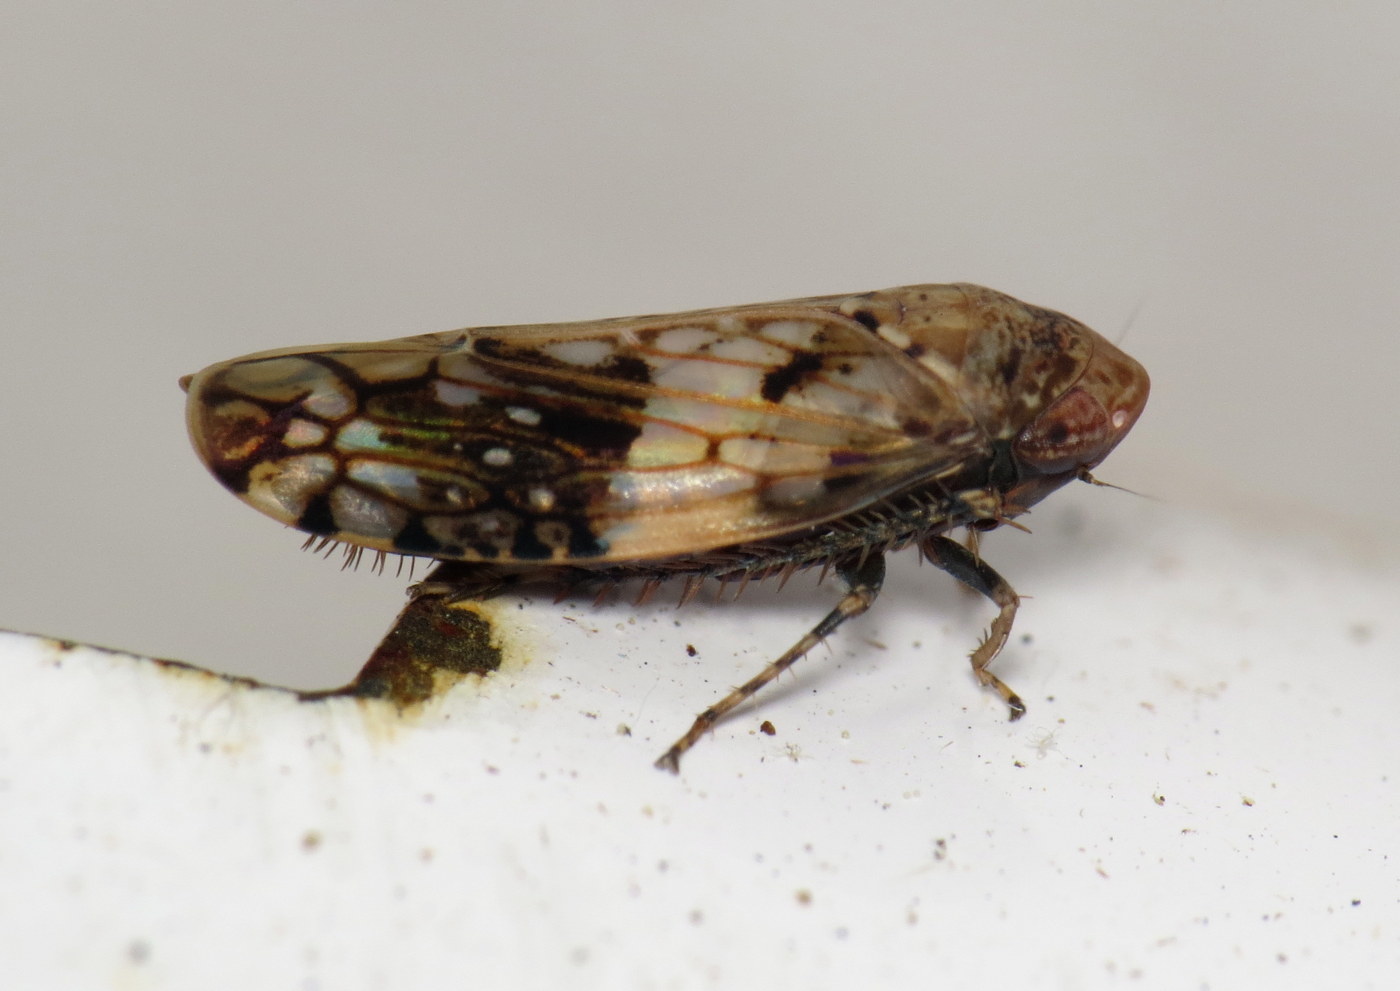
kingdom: Animalia
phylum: Arthropoda
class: Insecta
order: Hemiptera
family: Cicadellidae
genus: Menosoma
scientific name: Menosoma cinctum
